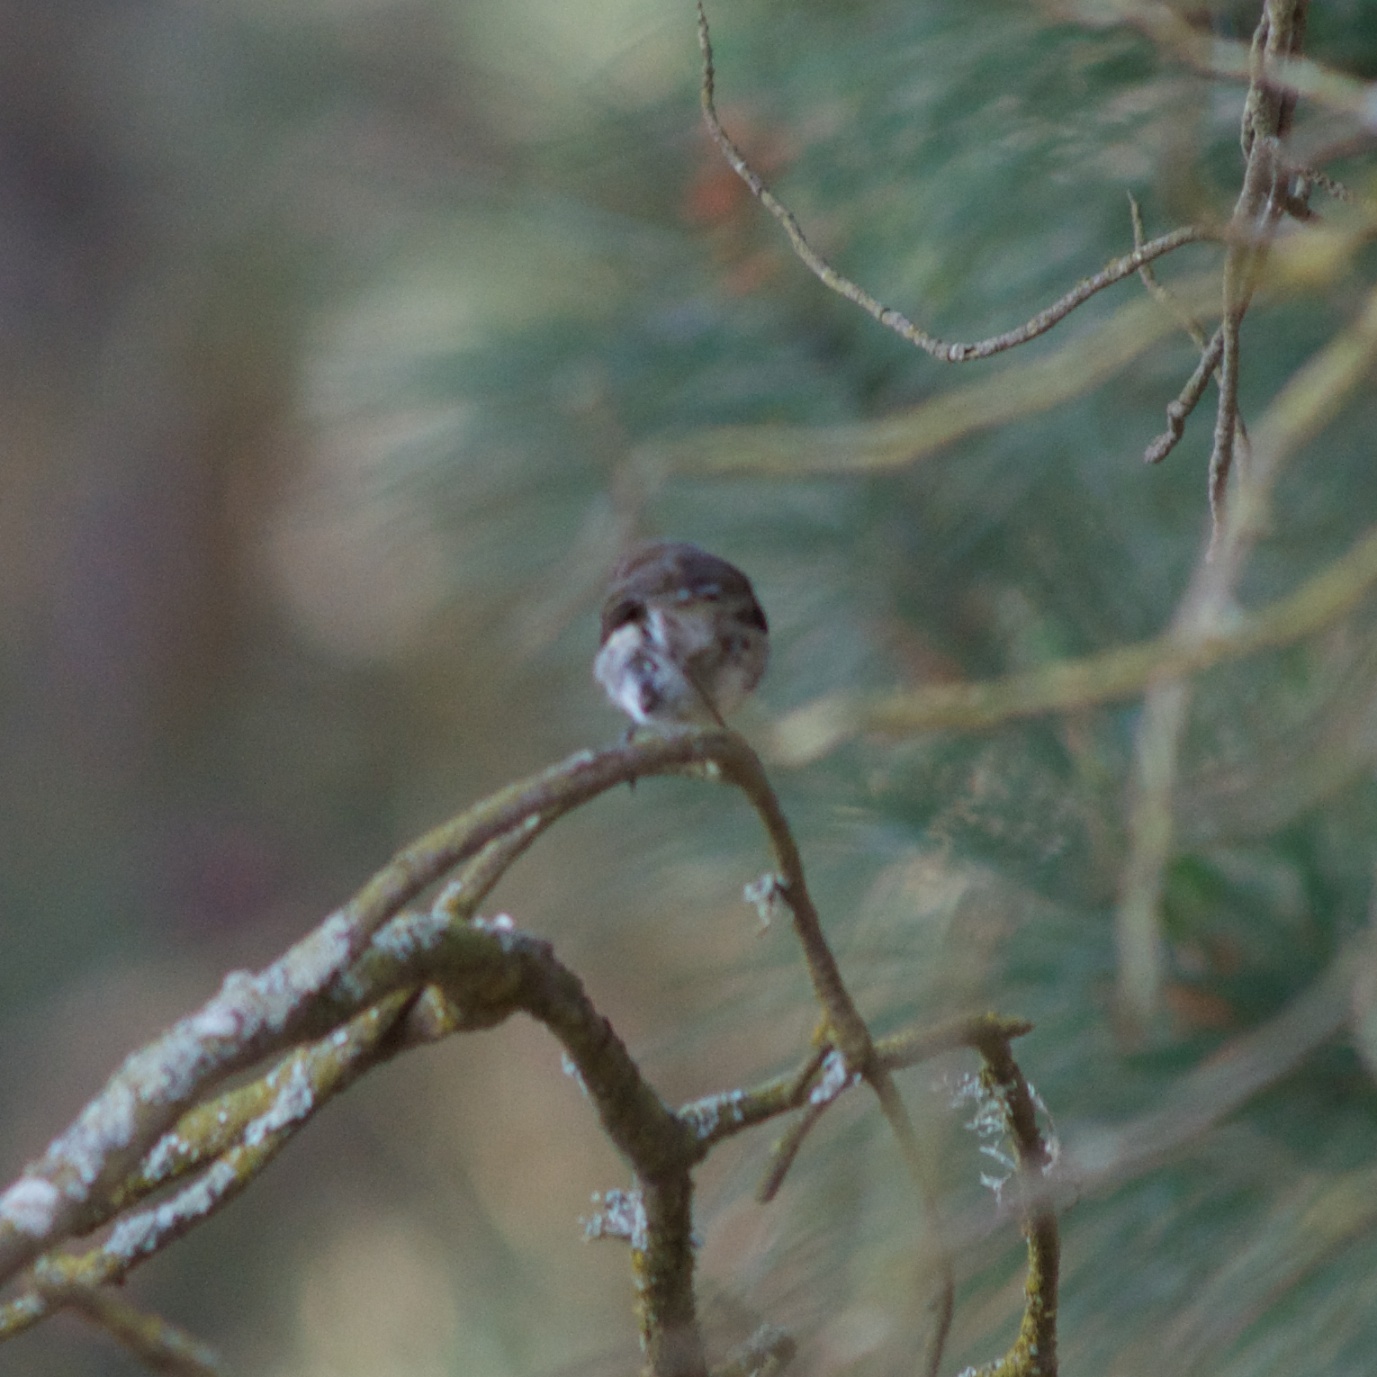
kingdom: Animalia
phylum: Chordata
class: Aves
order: Passeriformes
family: Acanthizidae
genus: Gerygone
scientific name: Gerygone igata
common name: Grey gerygone
